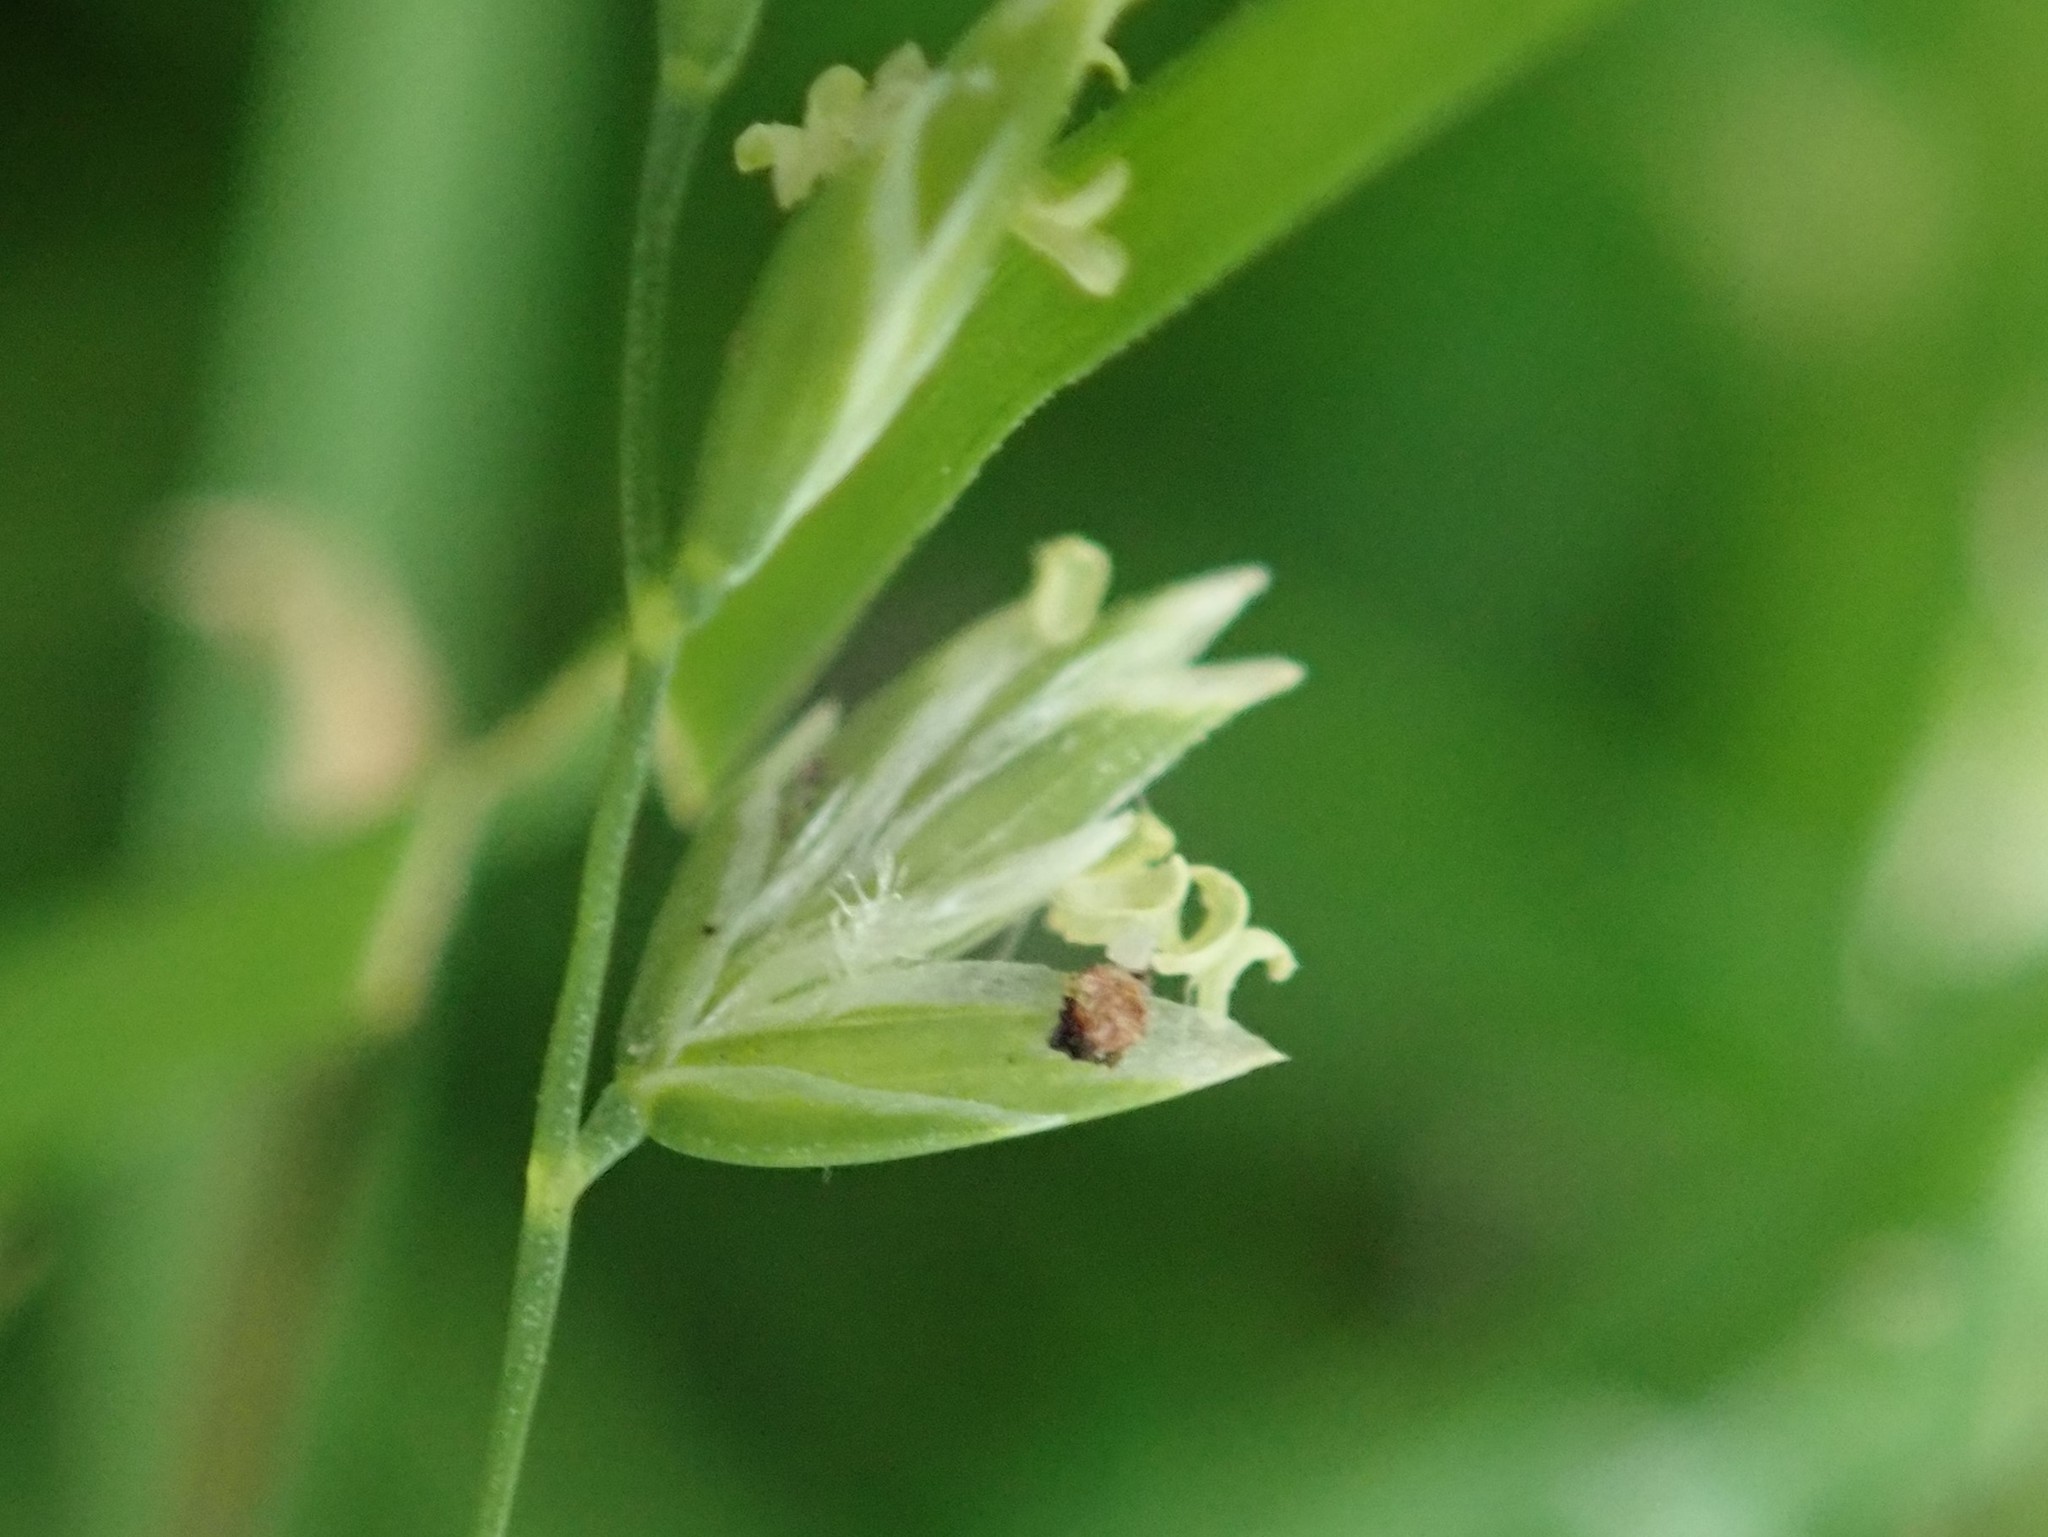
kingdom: Plantae
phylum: Tracheophyta
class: Liliopsida
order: Poales
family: Poaceae
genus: Poa
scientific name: Poa annua
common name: Annual bluegrass
